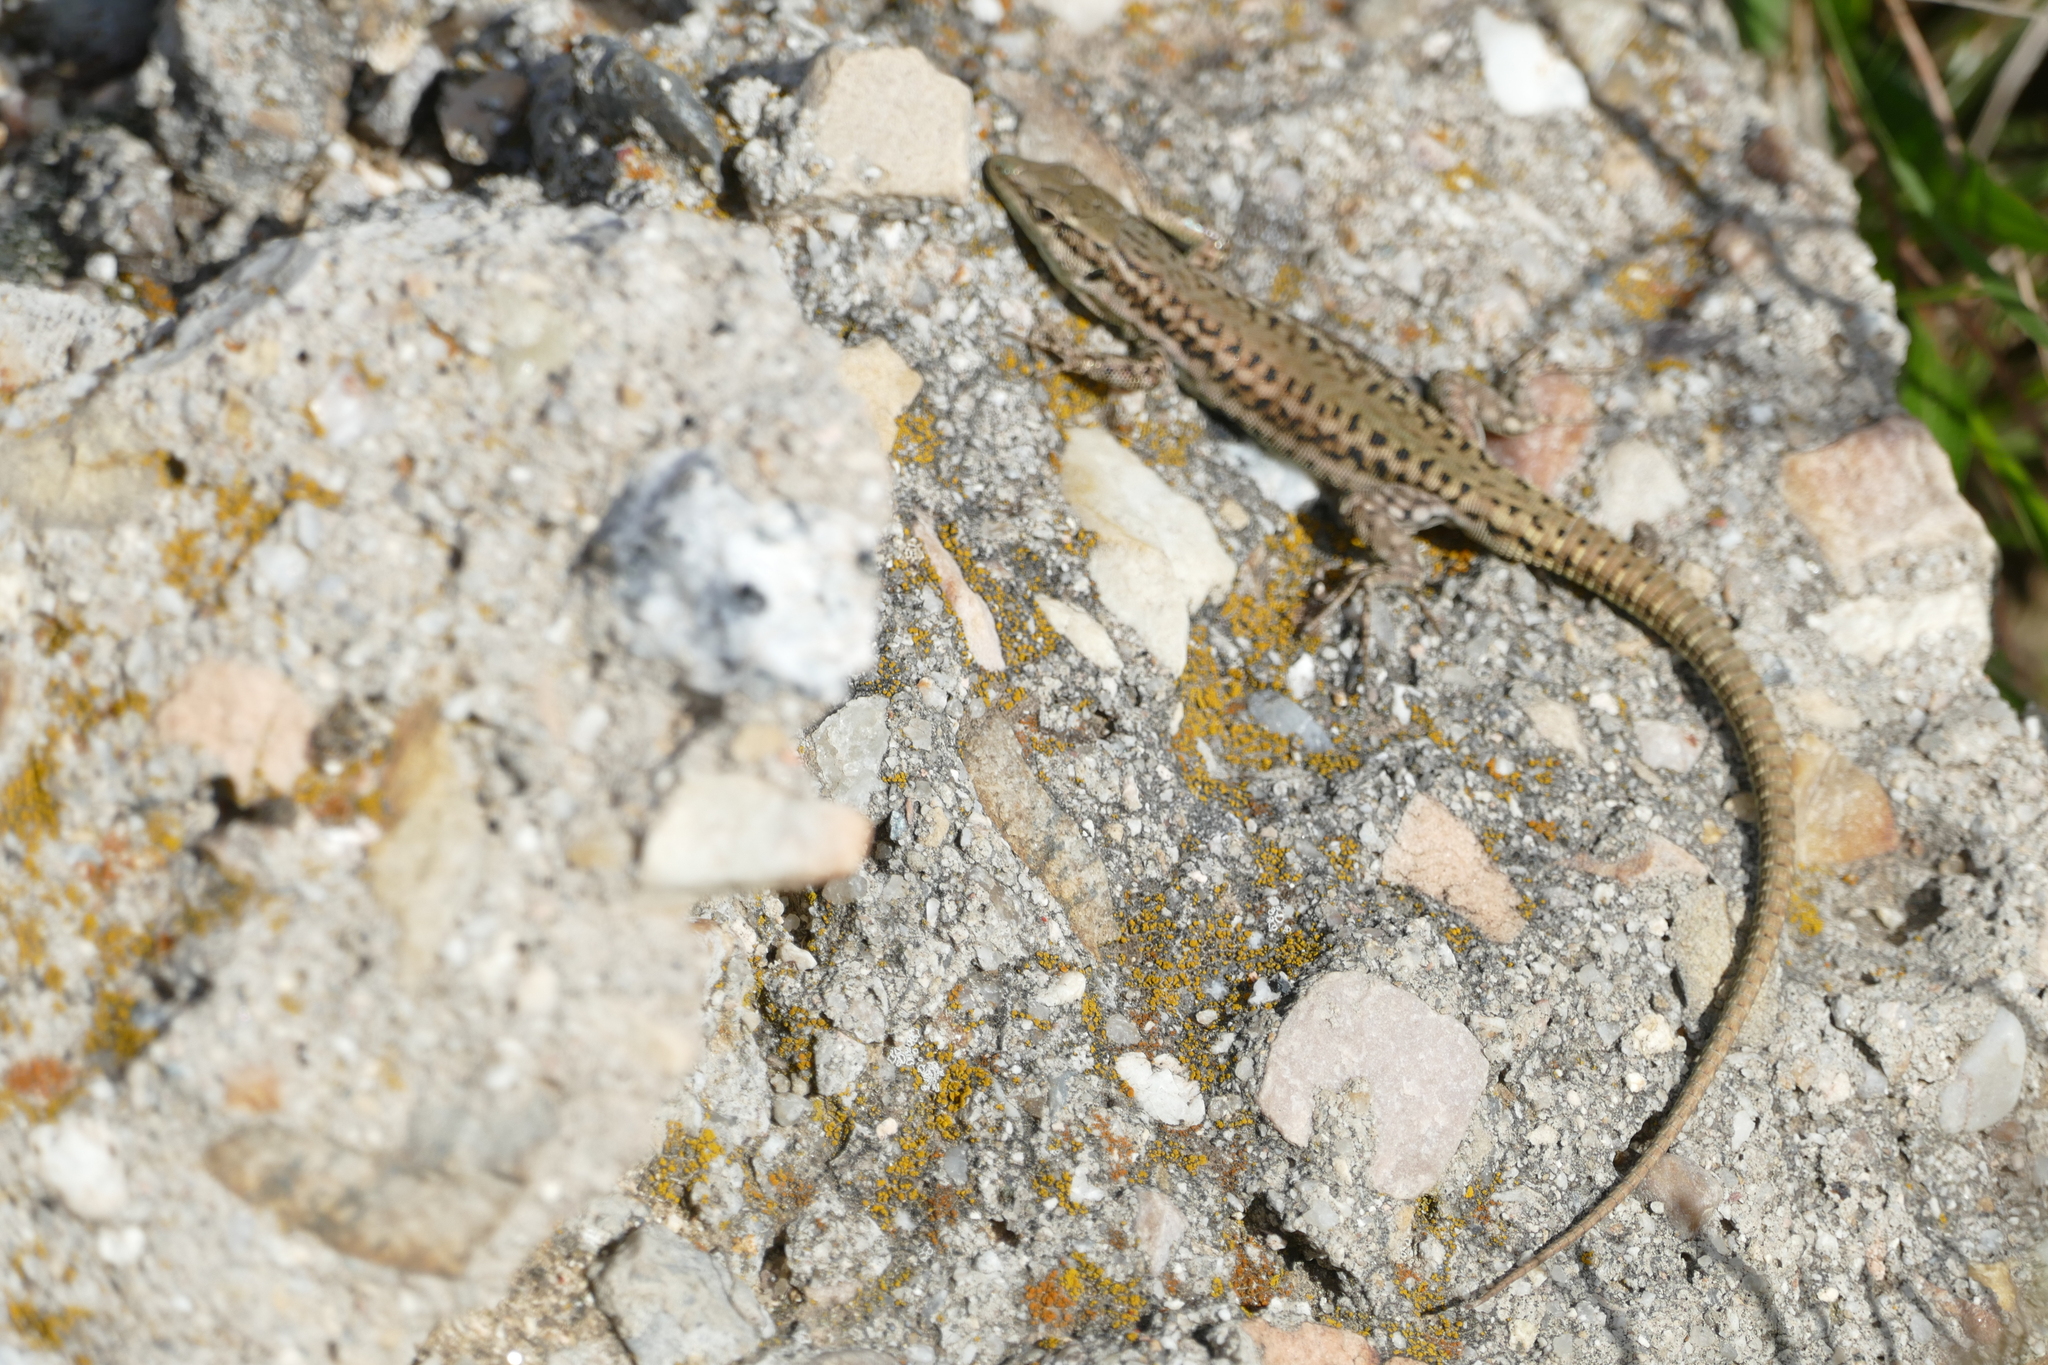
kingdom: Animalia
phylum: Chordata
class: Squamata
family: Lacertidae
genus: Podarcis
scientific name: Podarcis virescens
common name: Geniez’s wall lizard
